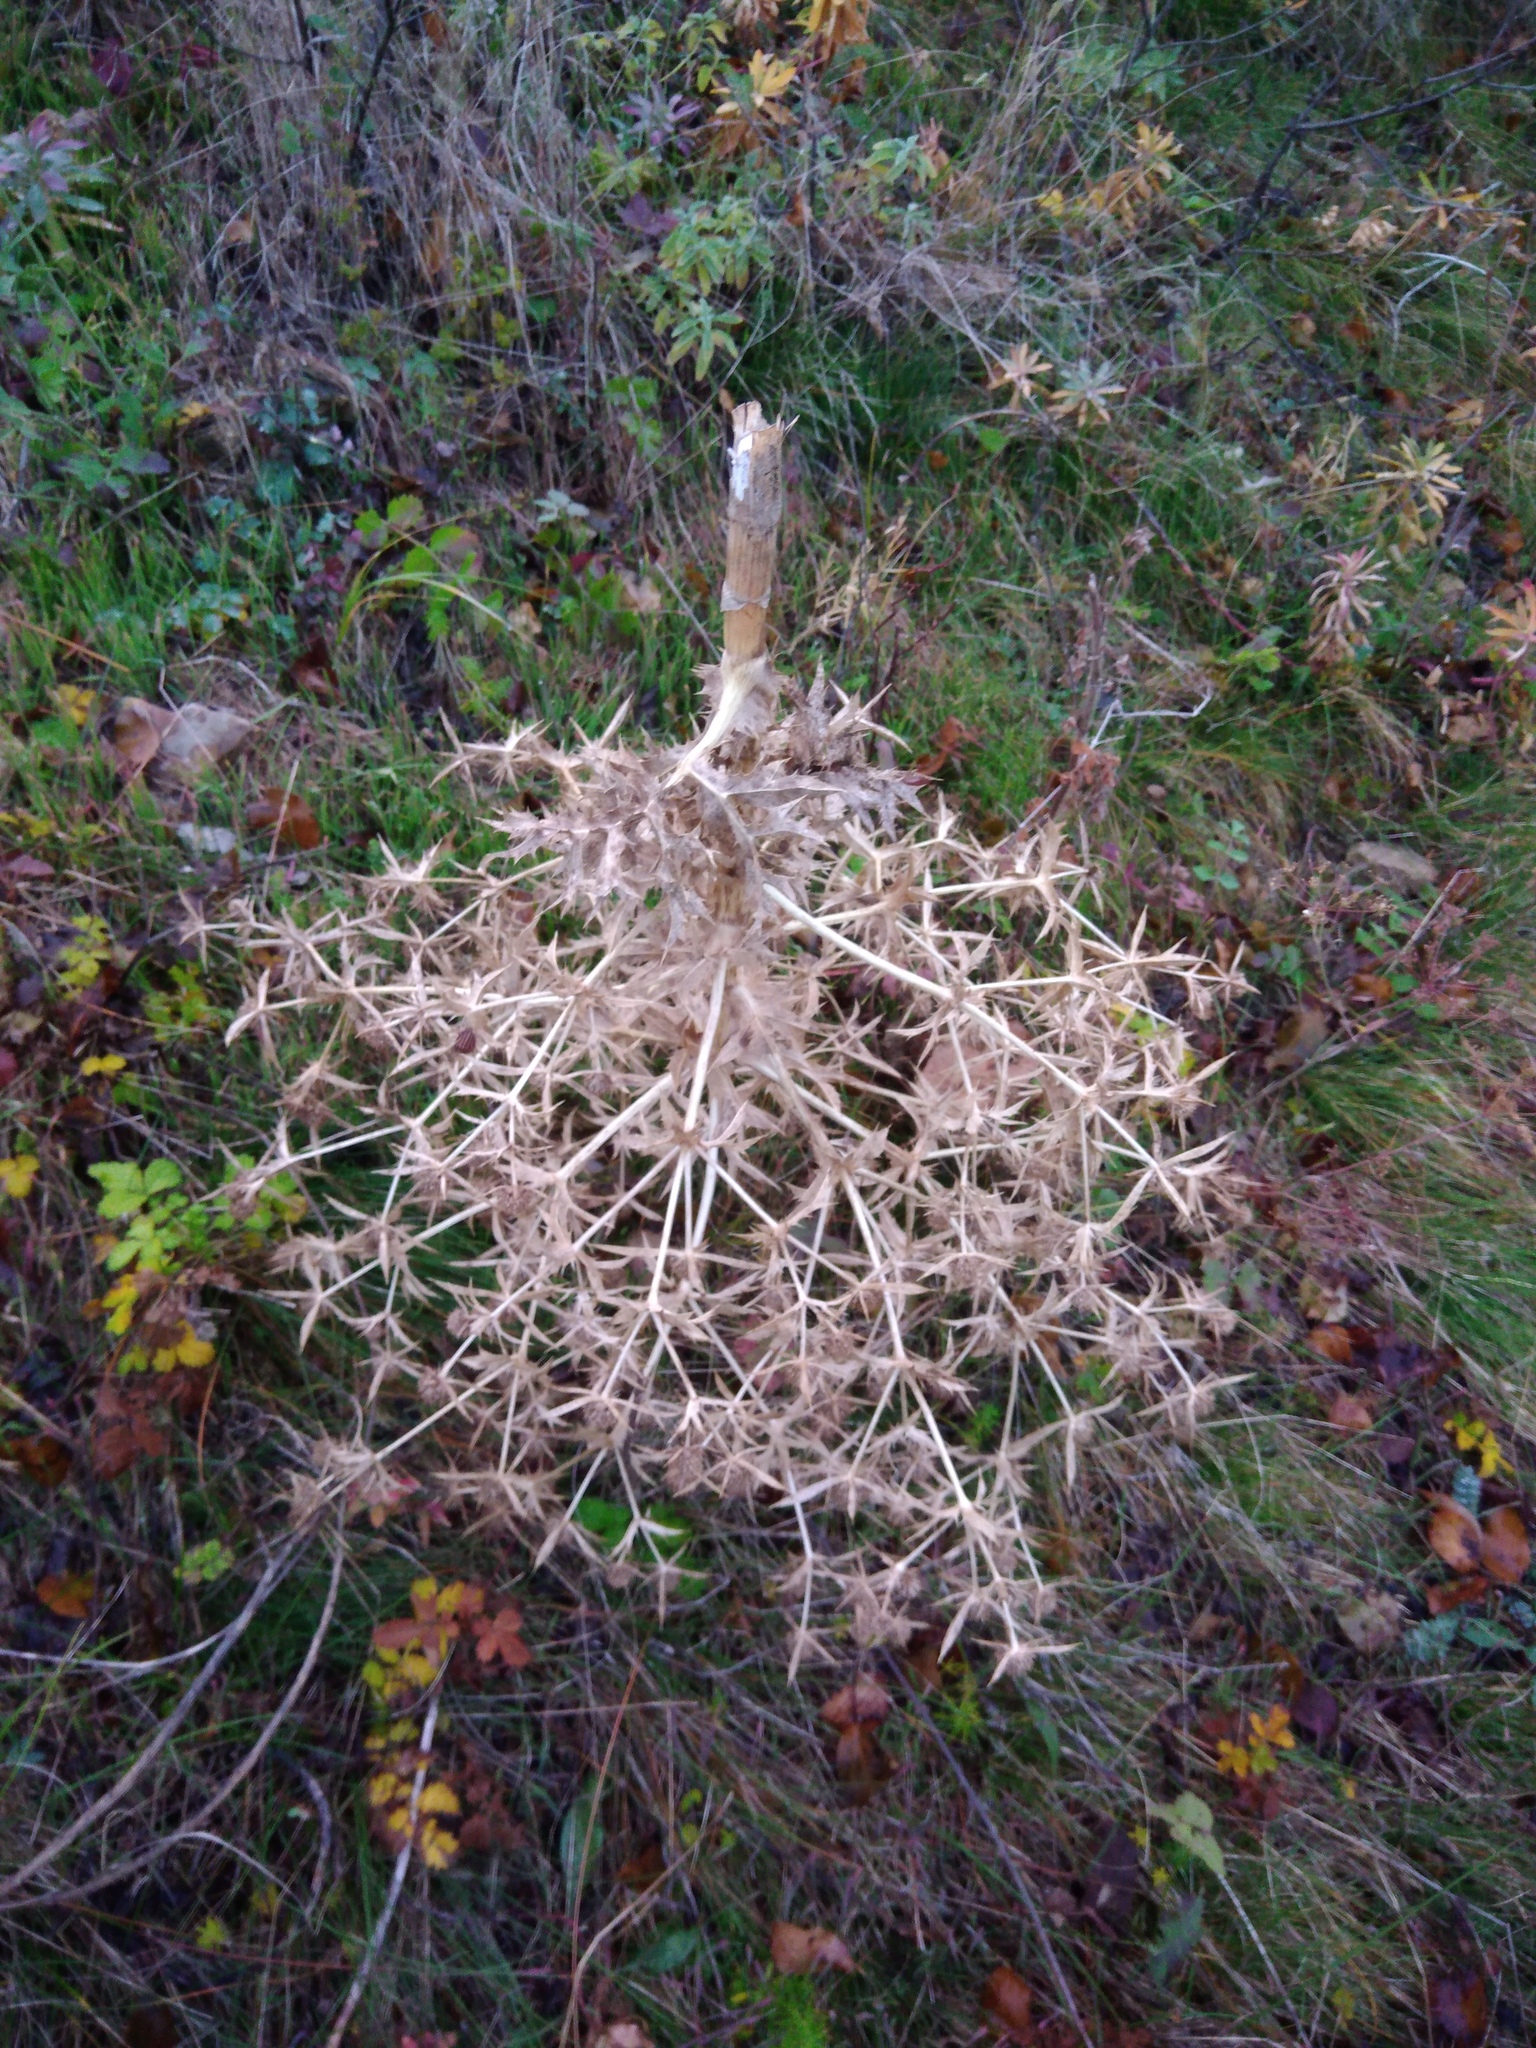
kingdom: Plantae
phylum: Tracheophyta
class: Magnoliopsida
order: Apiales
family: Apiaceae
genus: Eryngium
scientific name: Eryngium campestre
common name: Field eryngo
